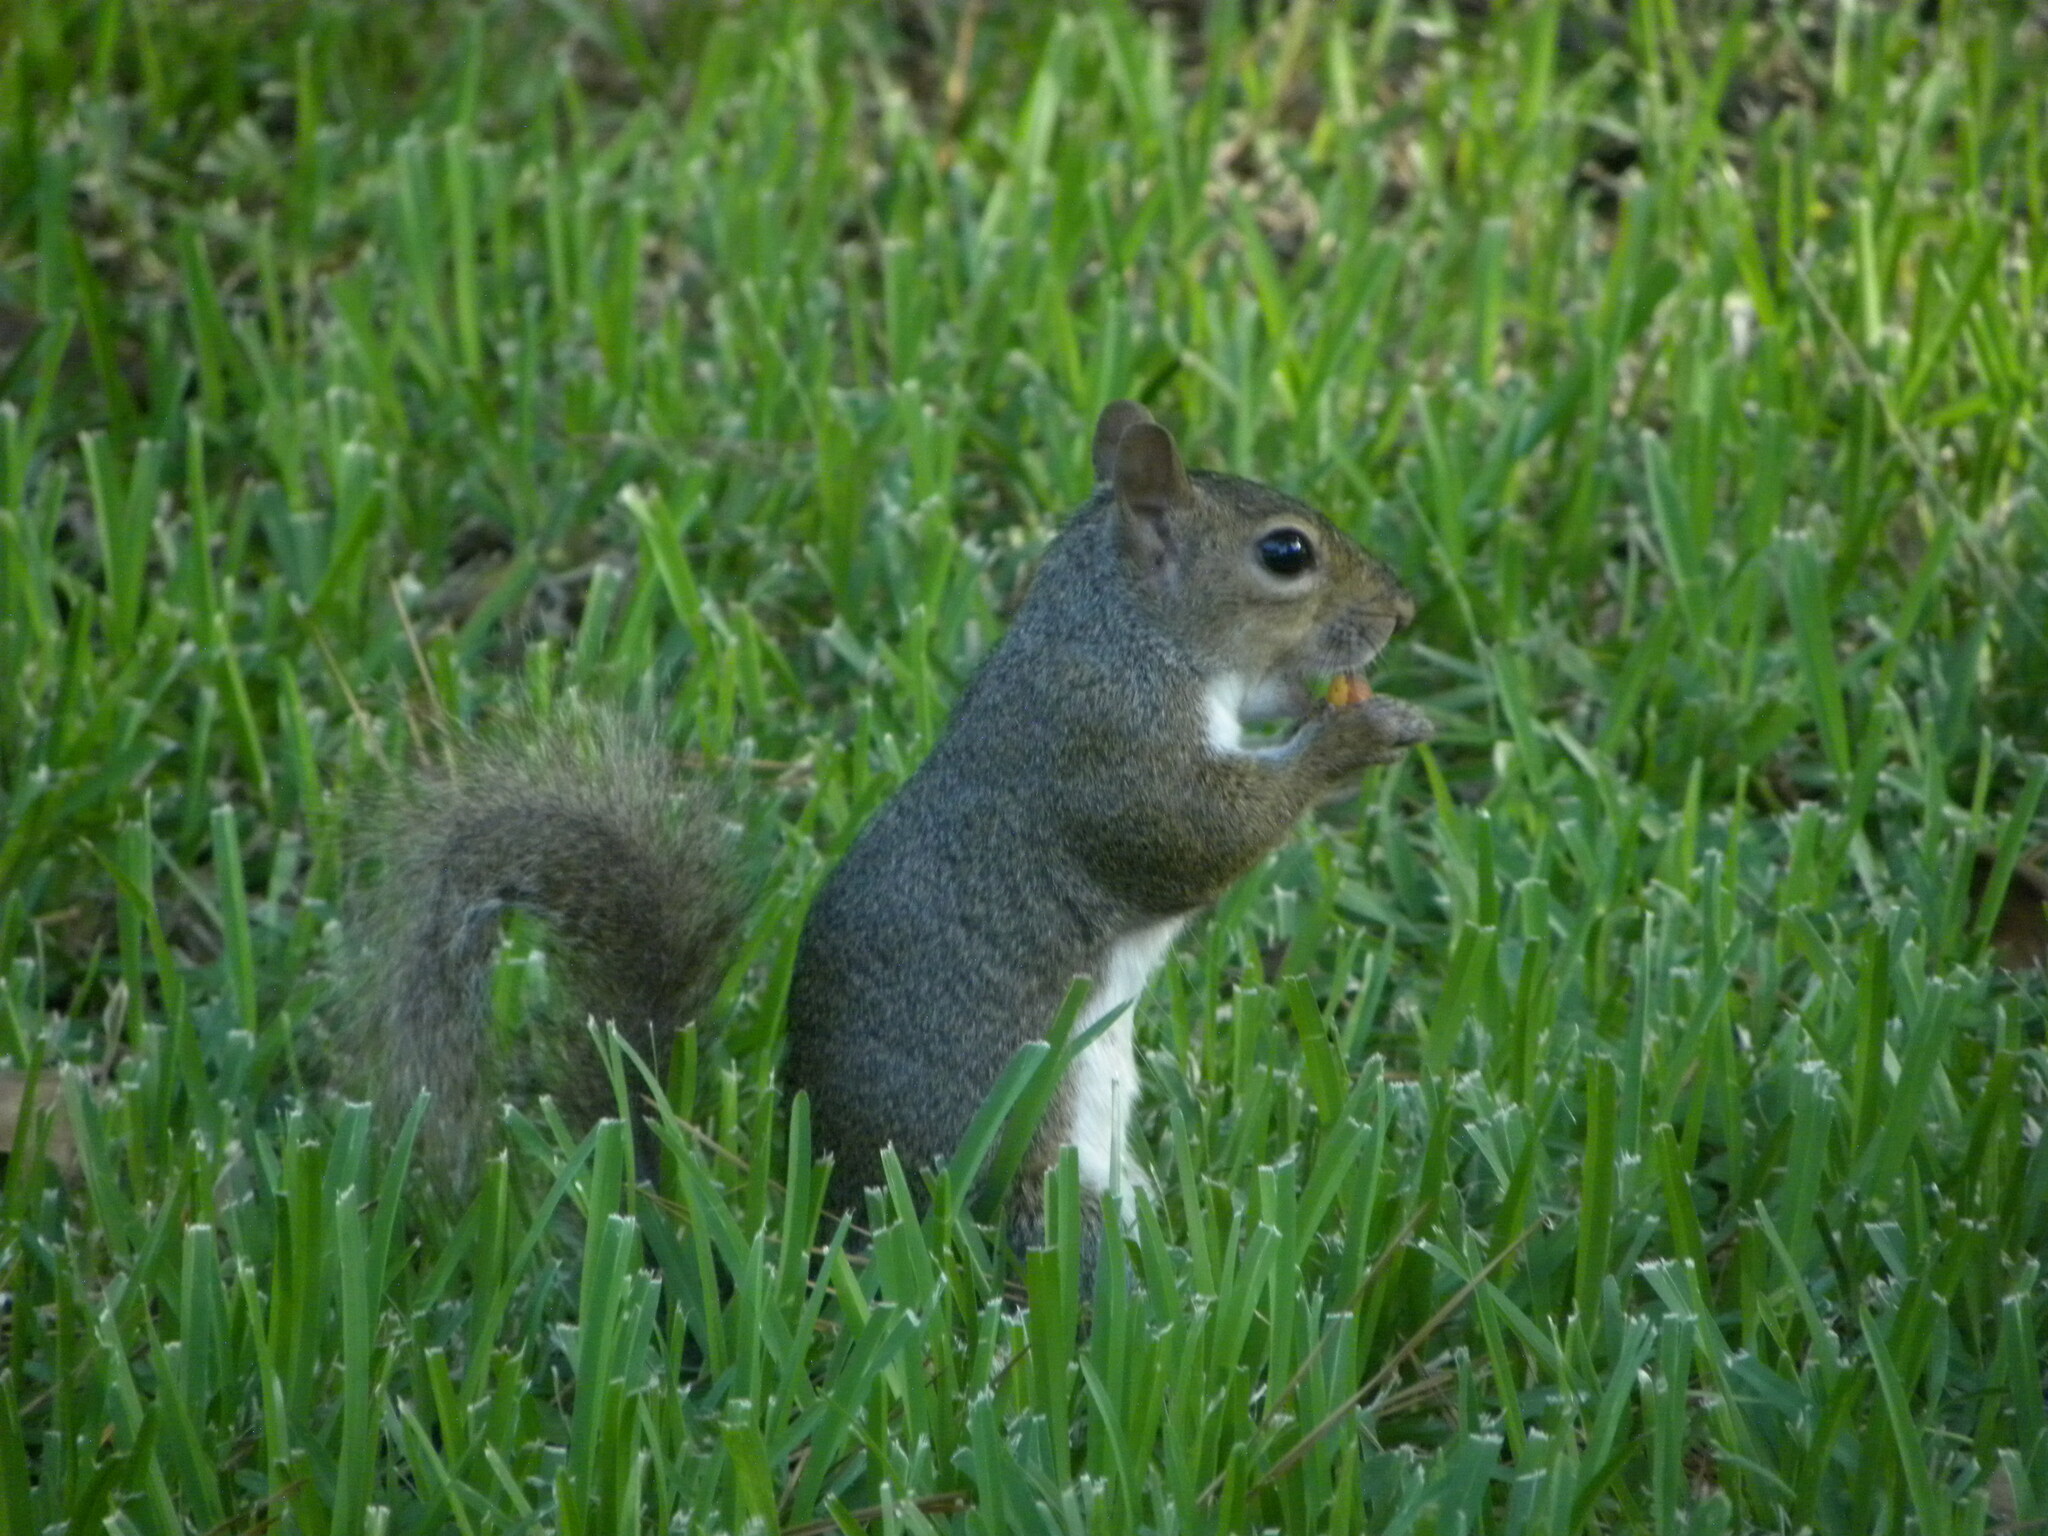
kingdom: Animalia
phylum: Chordata
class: Mammalia
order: Rodentia
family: Sciuridae
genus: Sciurus
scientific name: Sciurus carolinensis
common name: Eastern gray squirrel
